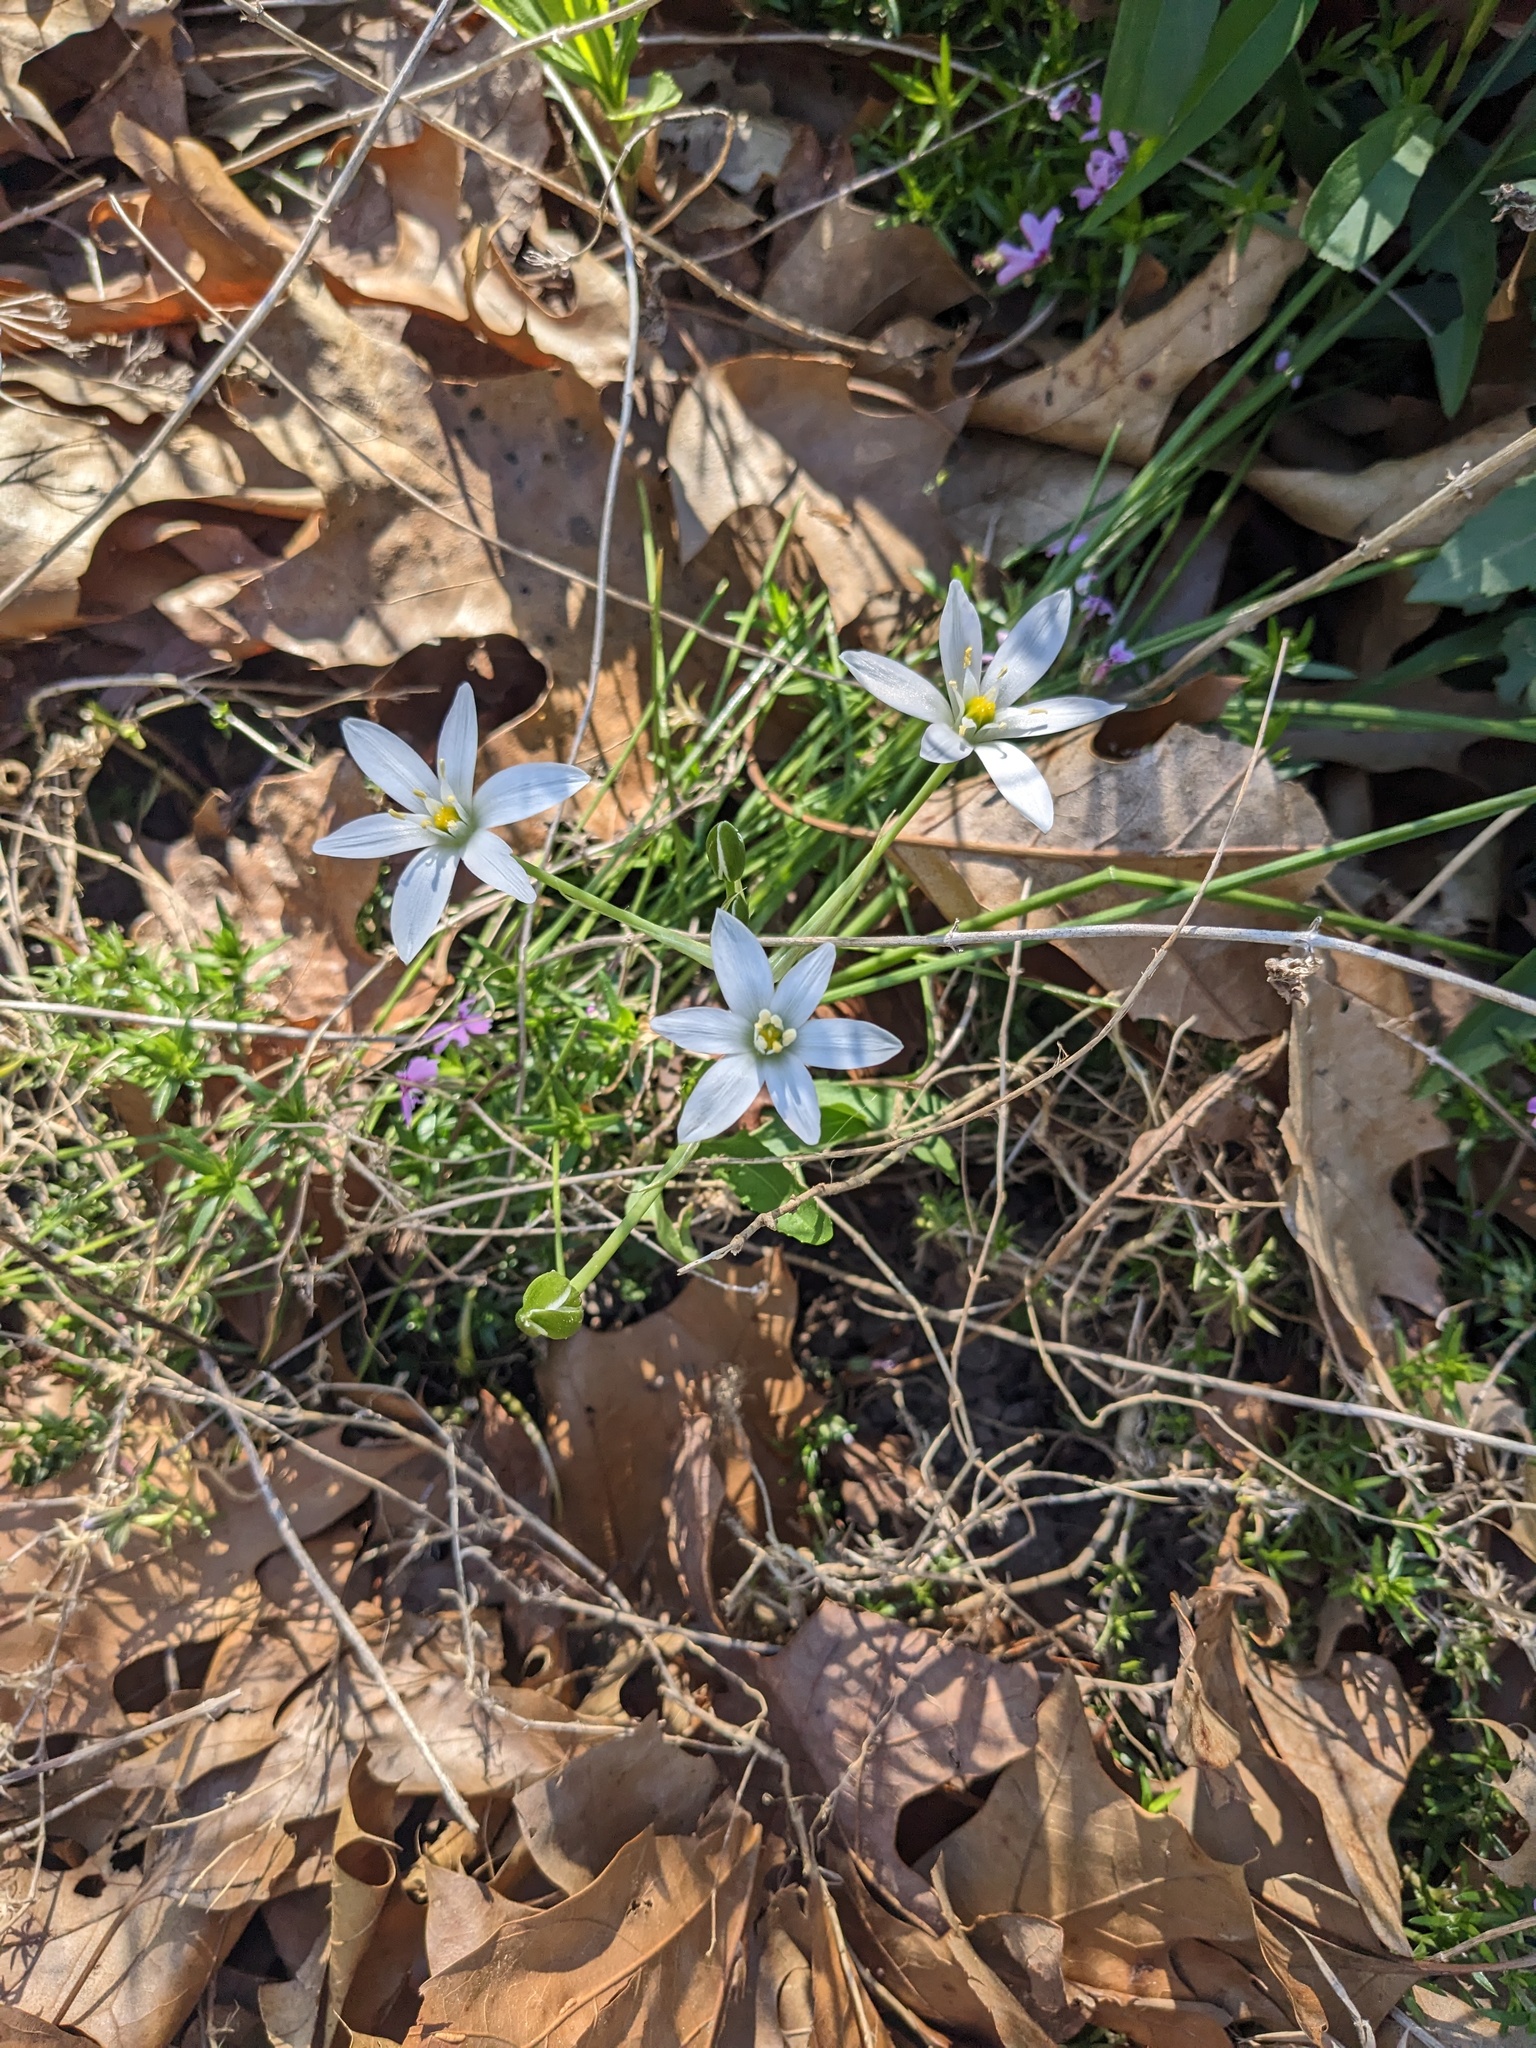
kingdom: Plantae
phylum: Tracheophyta
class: Liliopsida
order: Asparagales
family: Asparagaceae
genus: Ornithogalum
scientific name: Ornithogalum umbellatum
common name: Garden star-of-bethlehem
